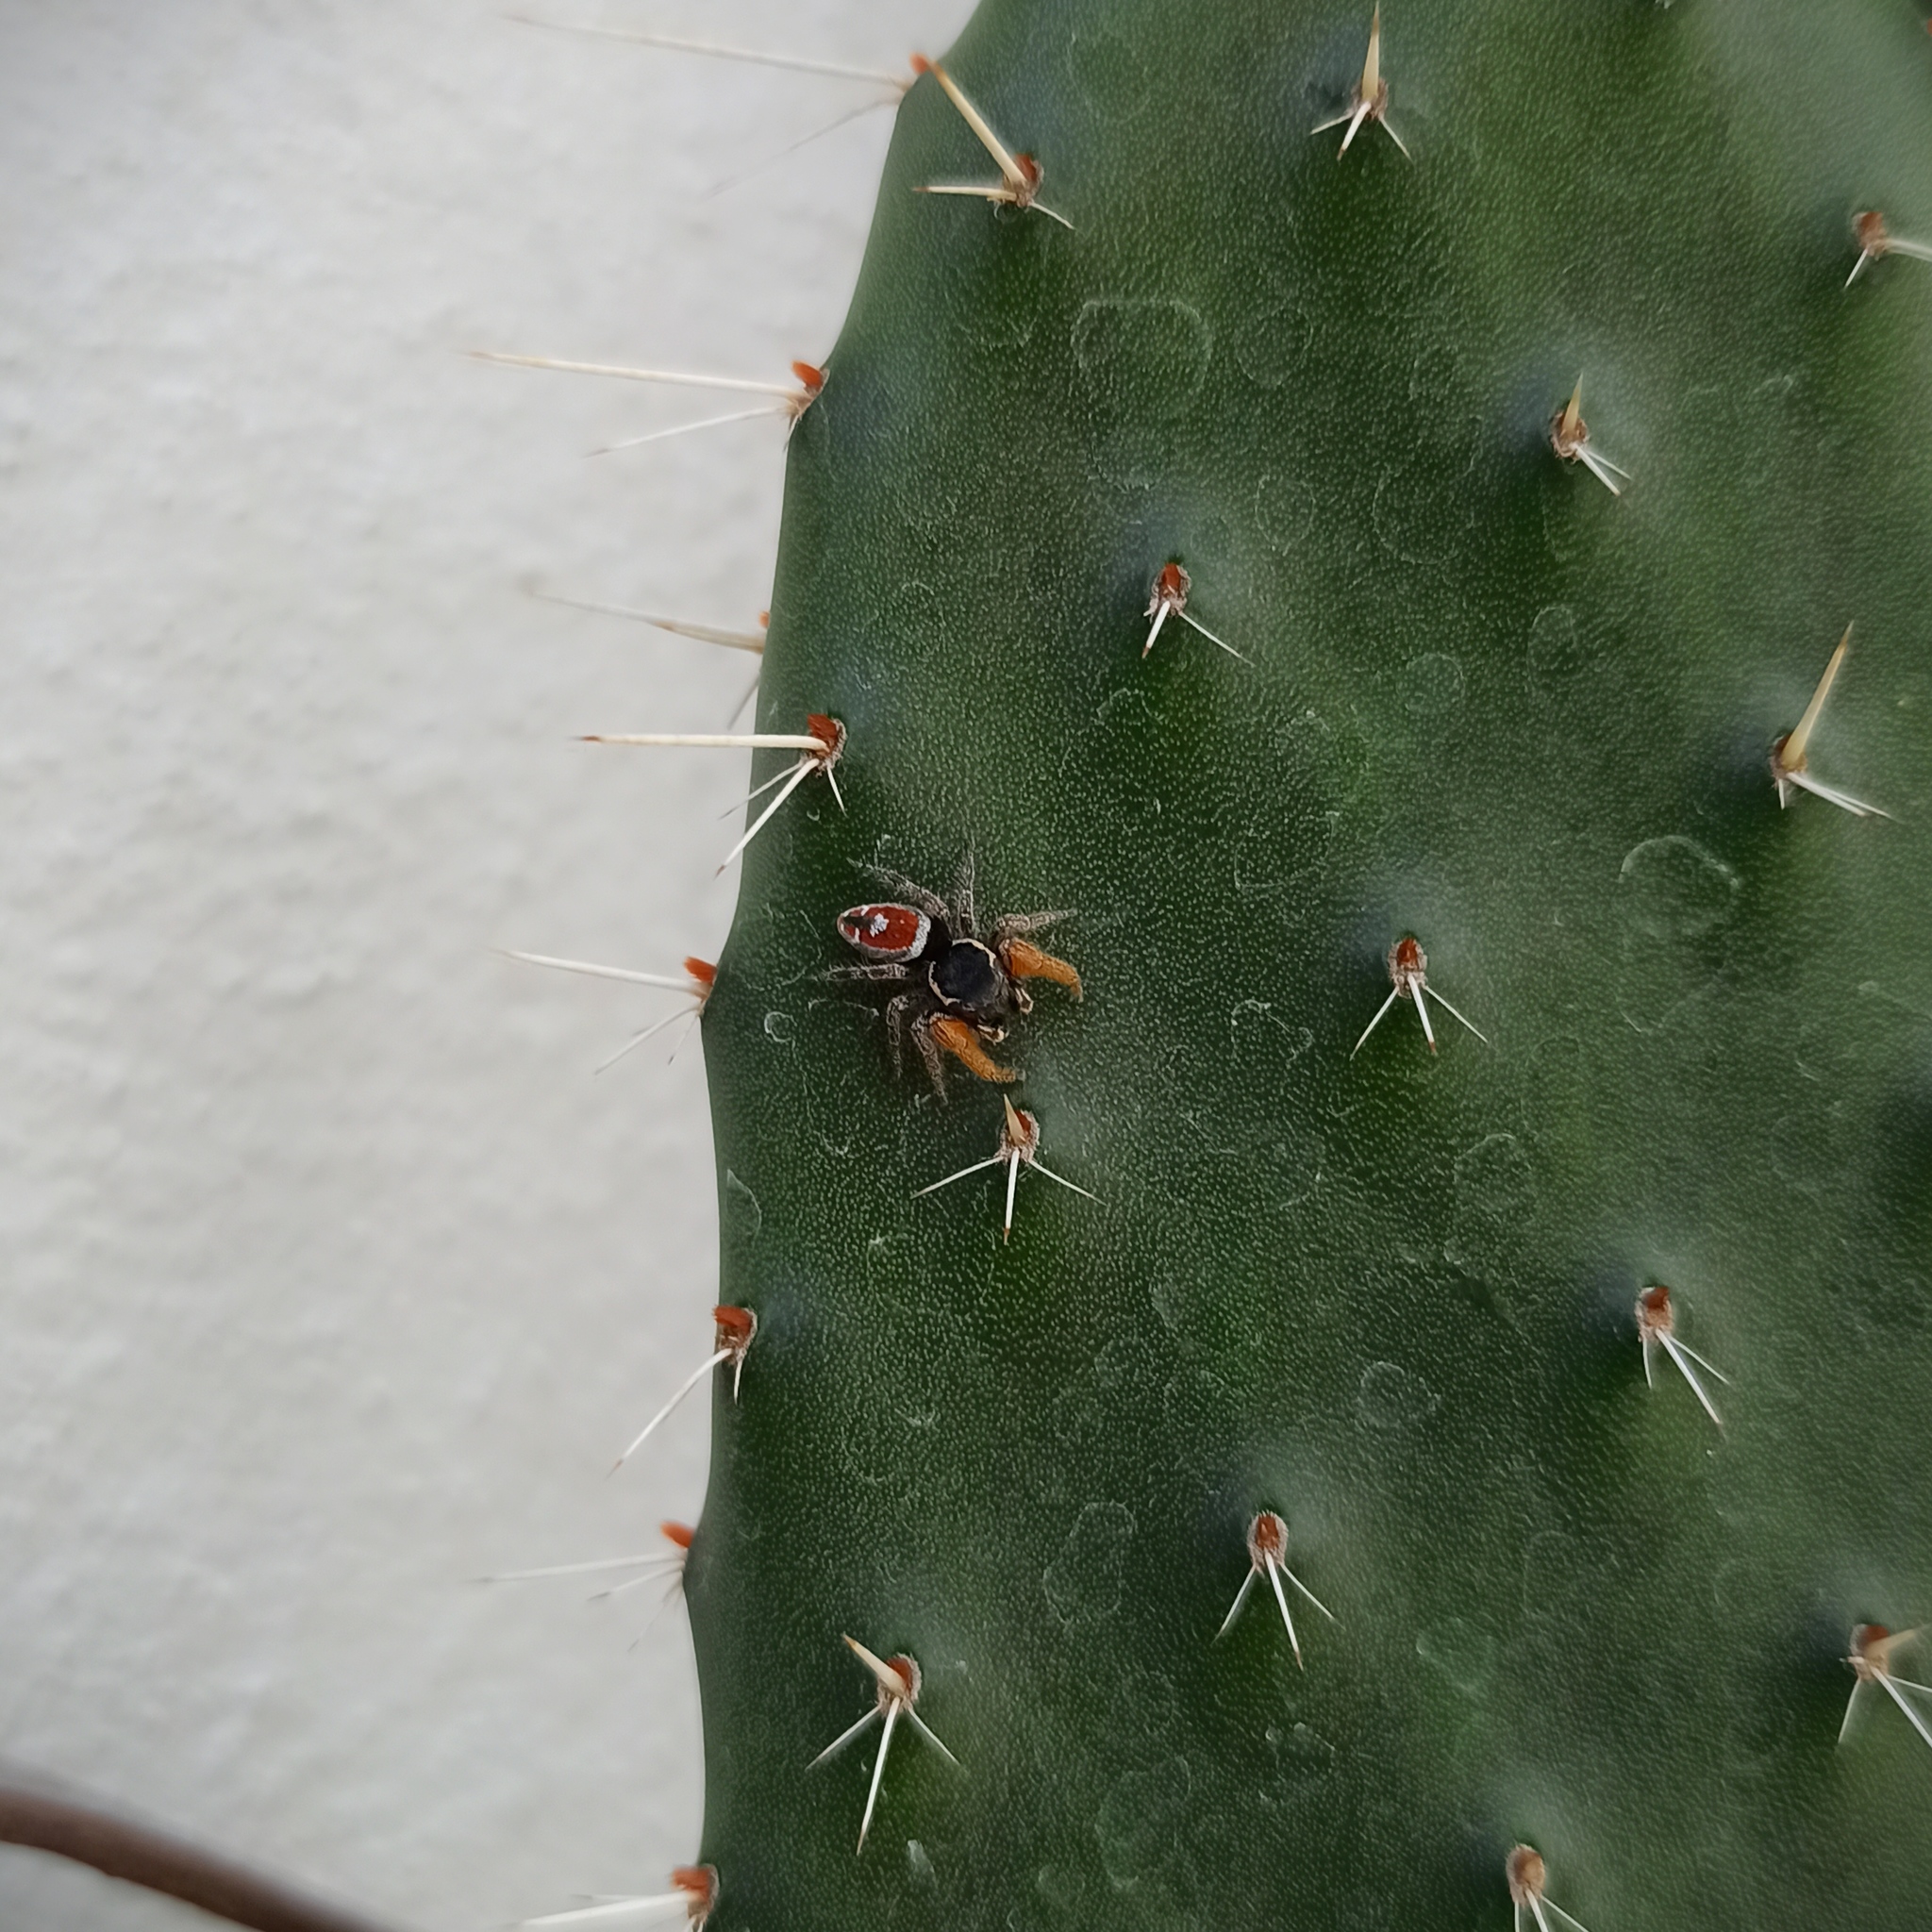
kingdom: Animalia
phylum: Arthropoda
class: Arachnida
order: Araneae
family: Salticidae
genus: Phidippus
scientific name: Phidippus cruentus
